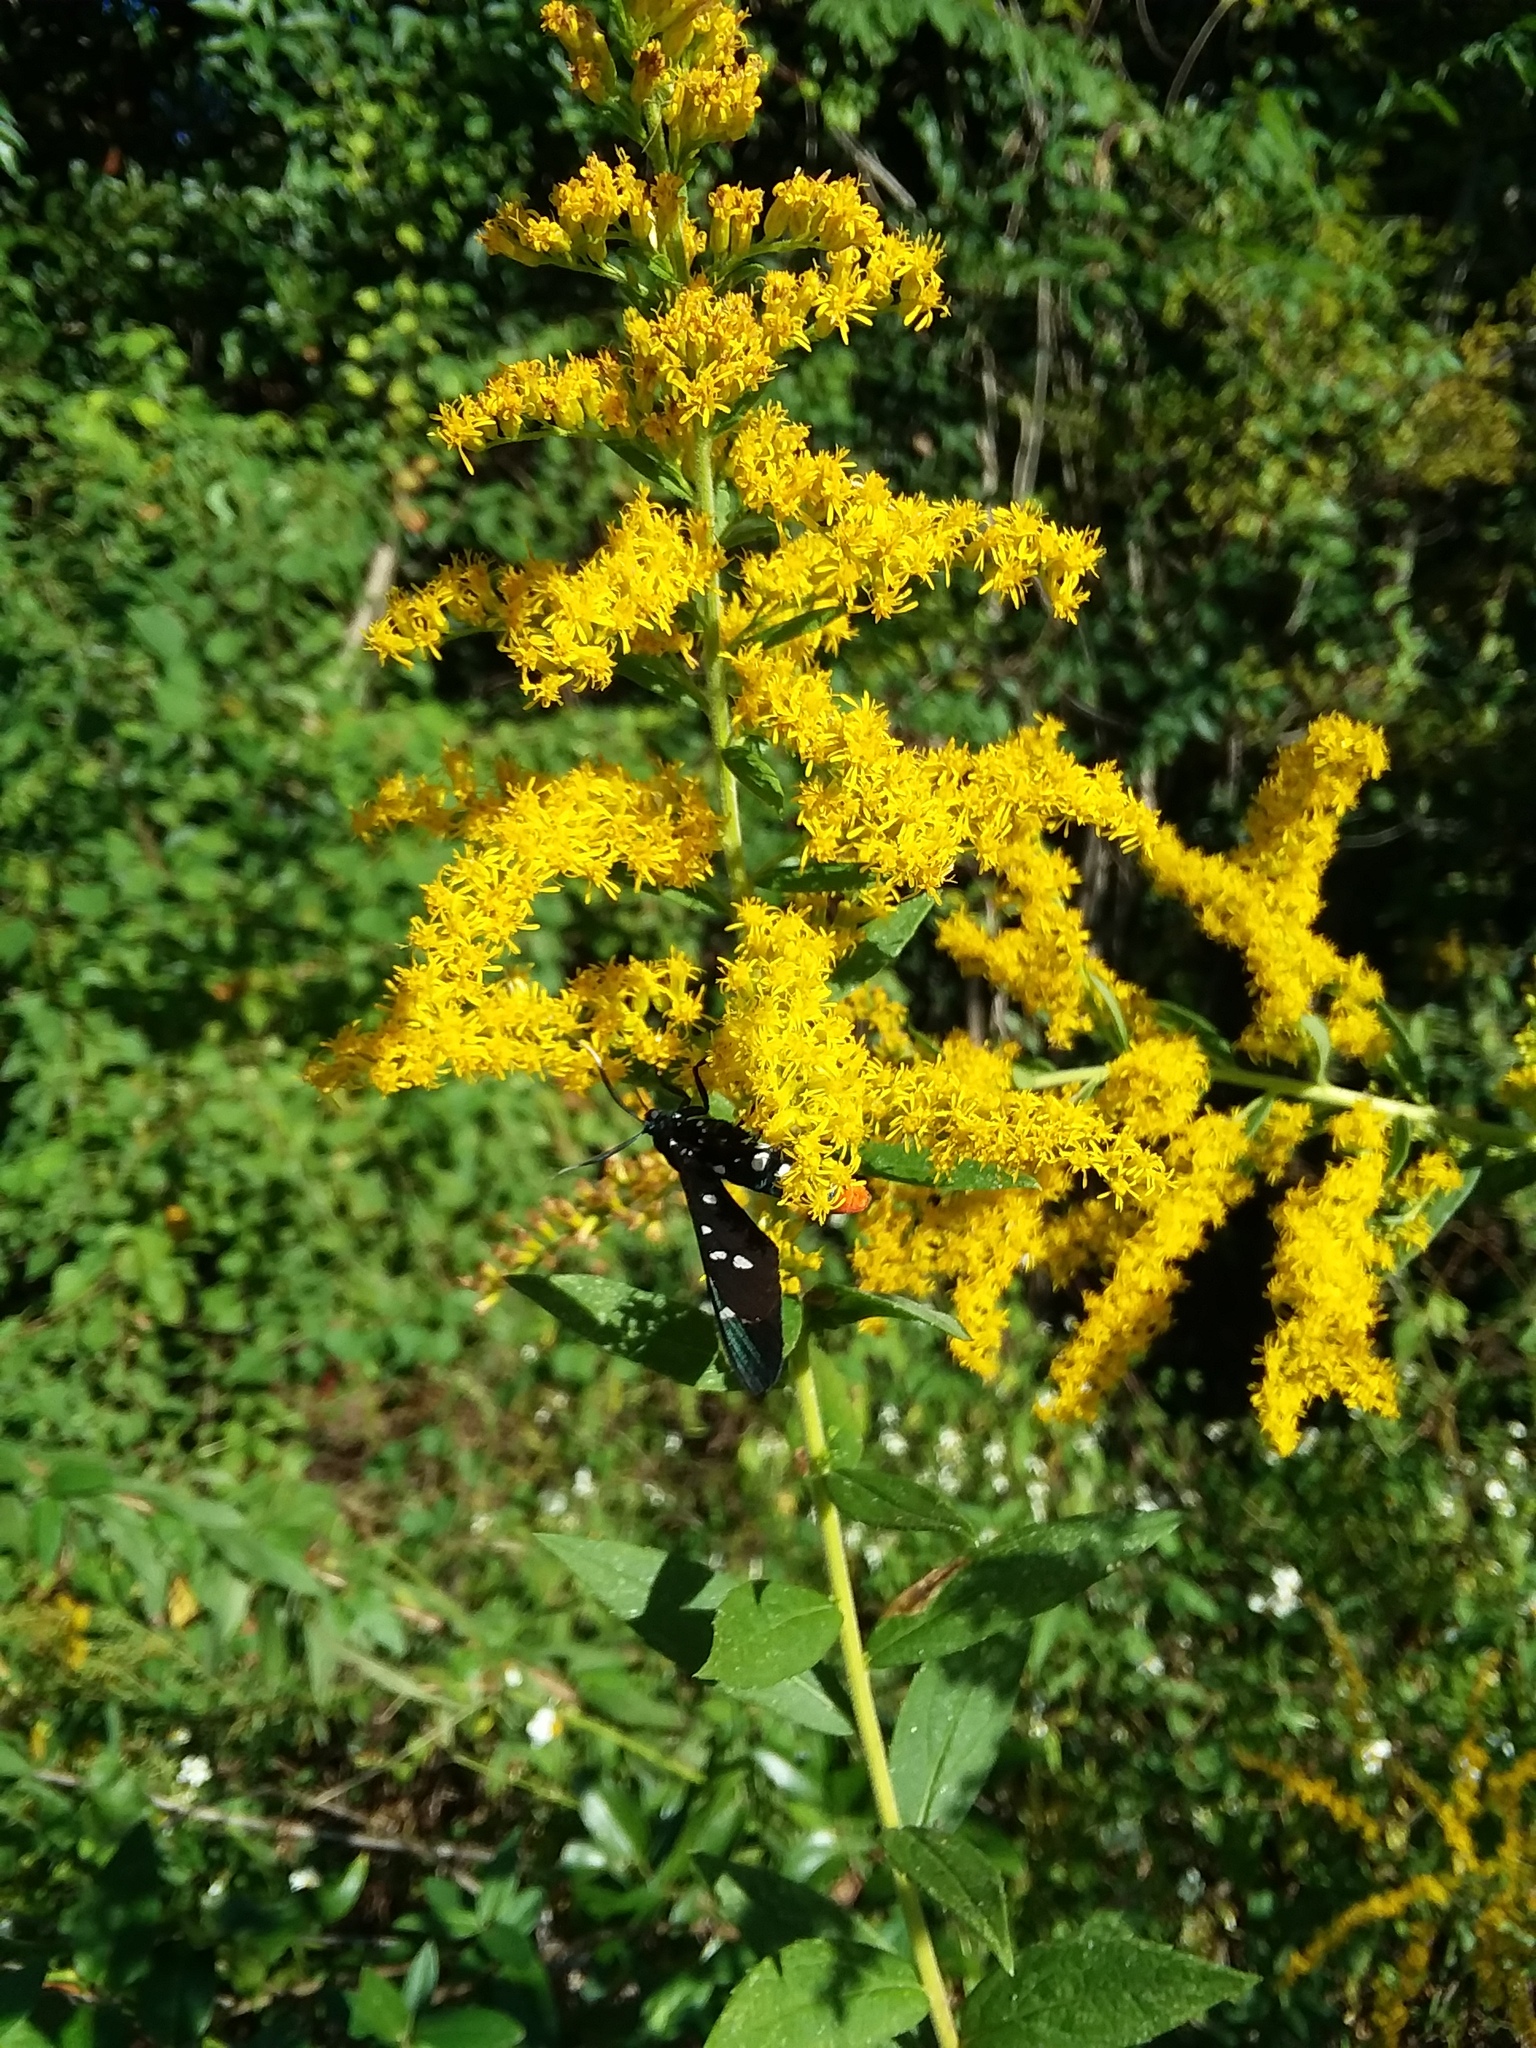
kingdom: Animalia
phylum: Arthropoda
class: Insecta
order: Lepidoptera
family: Erebidae
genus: Syntomeida
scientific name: Syntomeida epilais
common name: Polka-dot wasp moth
